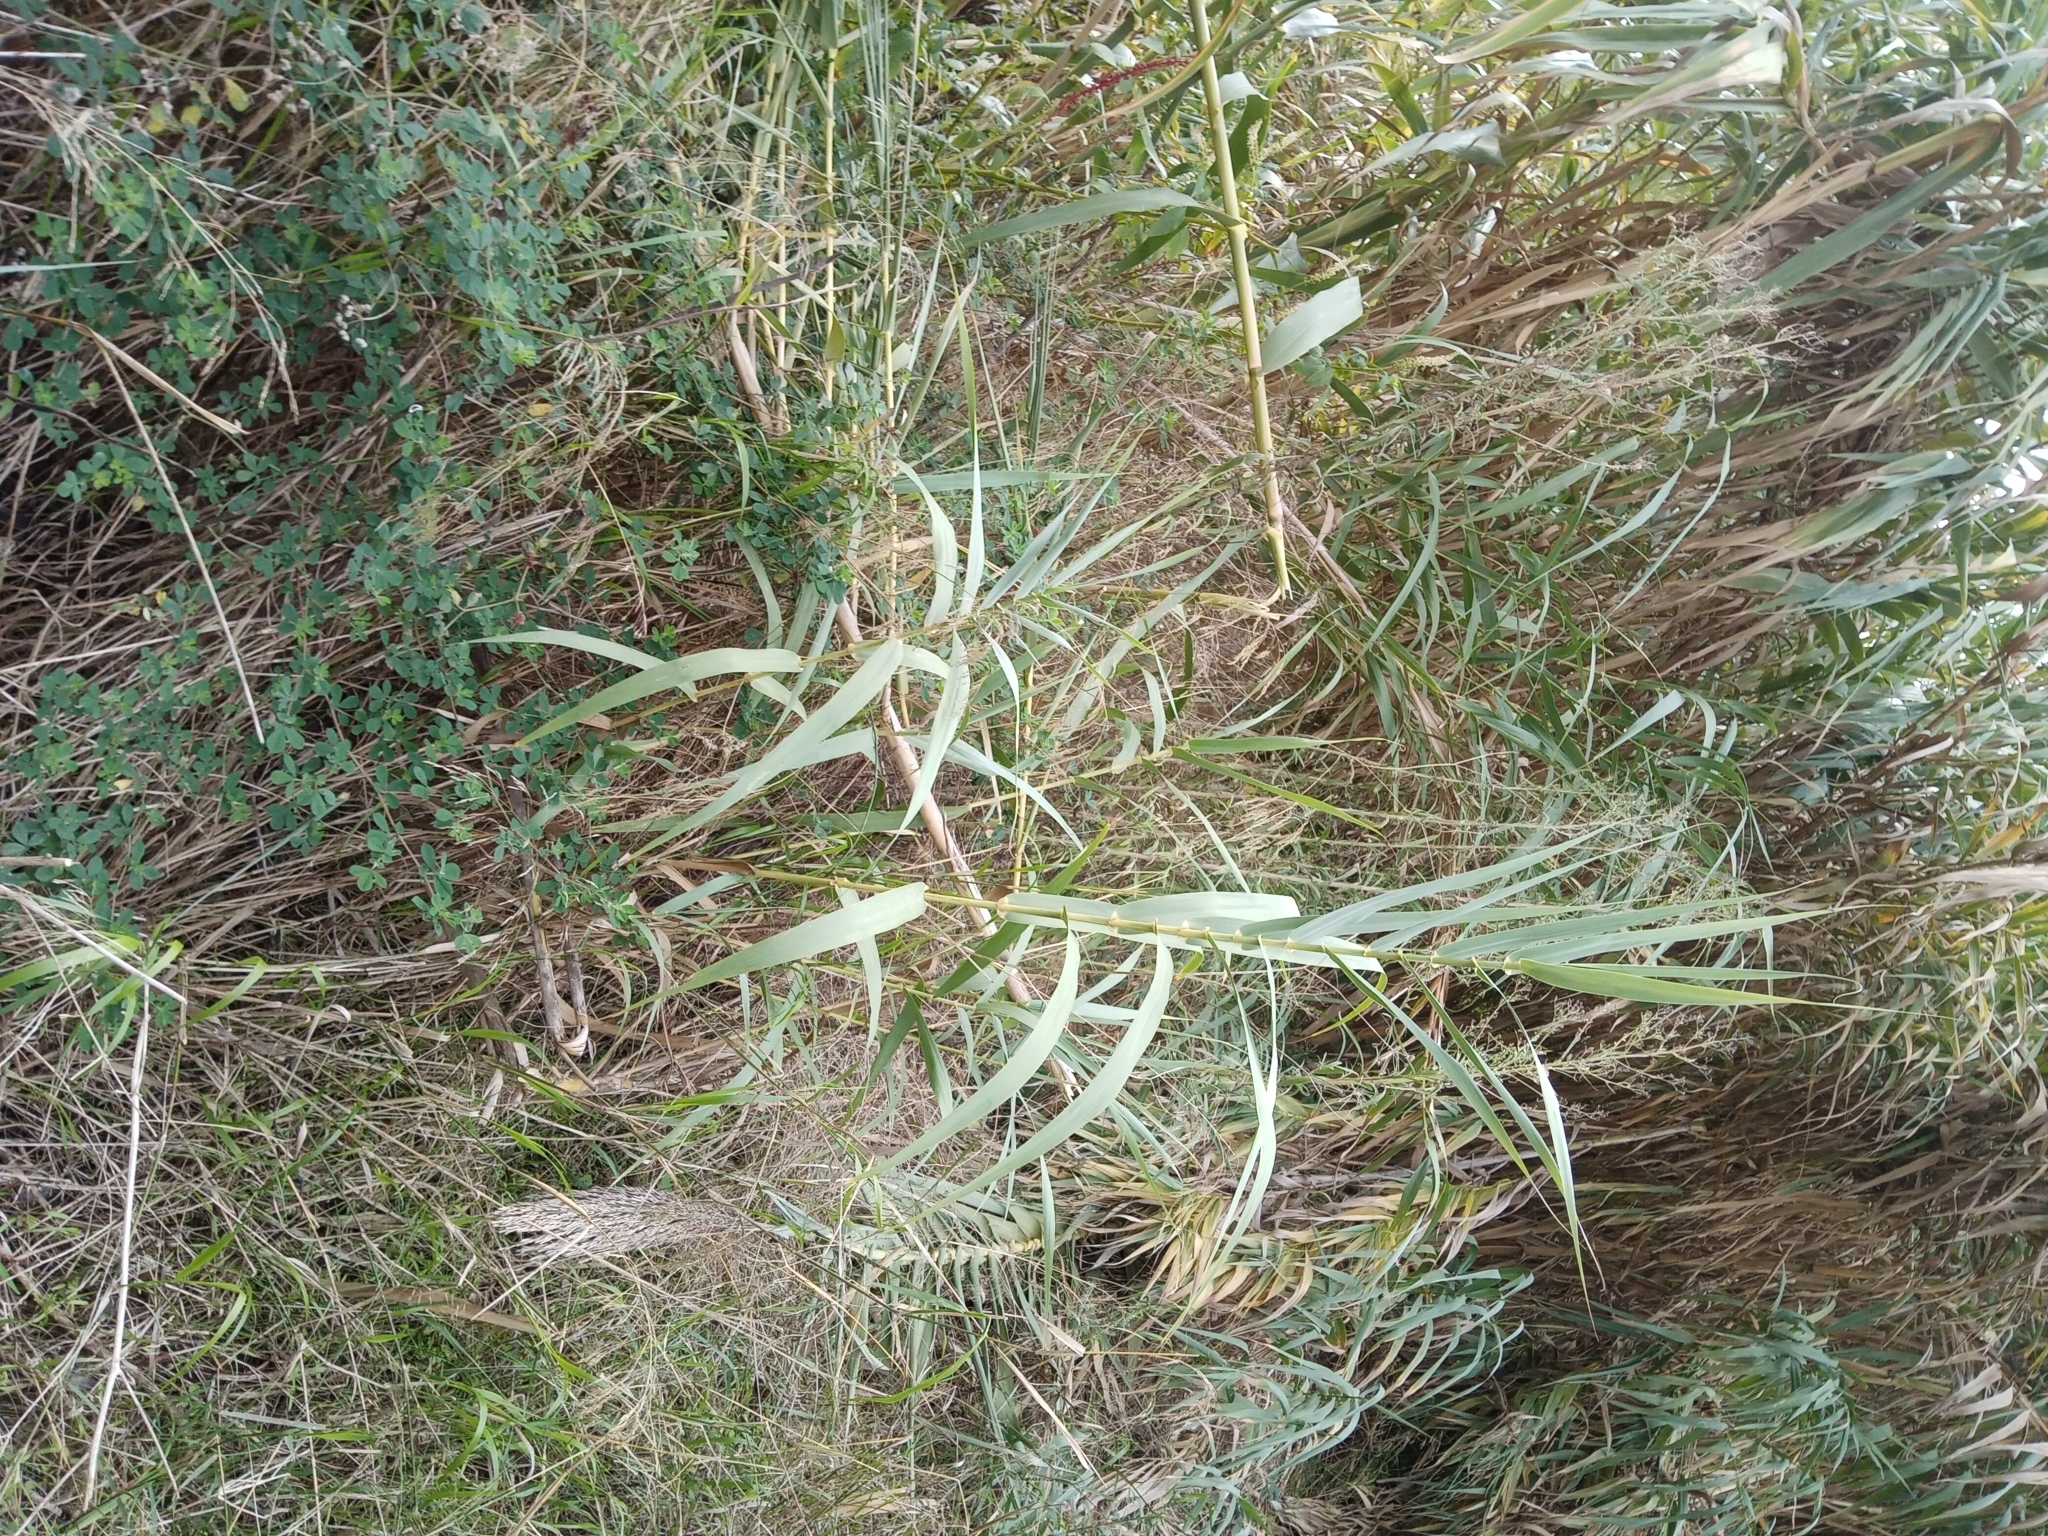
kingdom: Plantae
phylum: Tracheophyta
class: Liliopsida
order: Poales
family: Poaceae
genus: Arundo
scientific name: Arundo donax
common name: Giant reed
